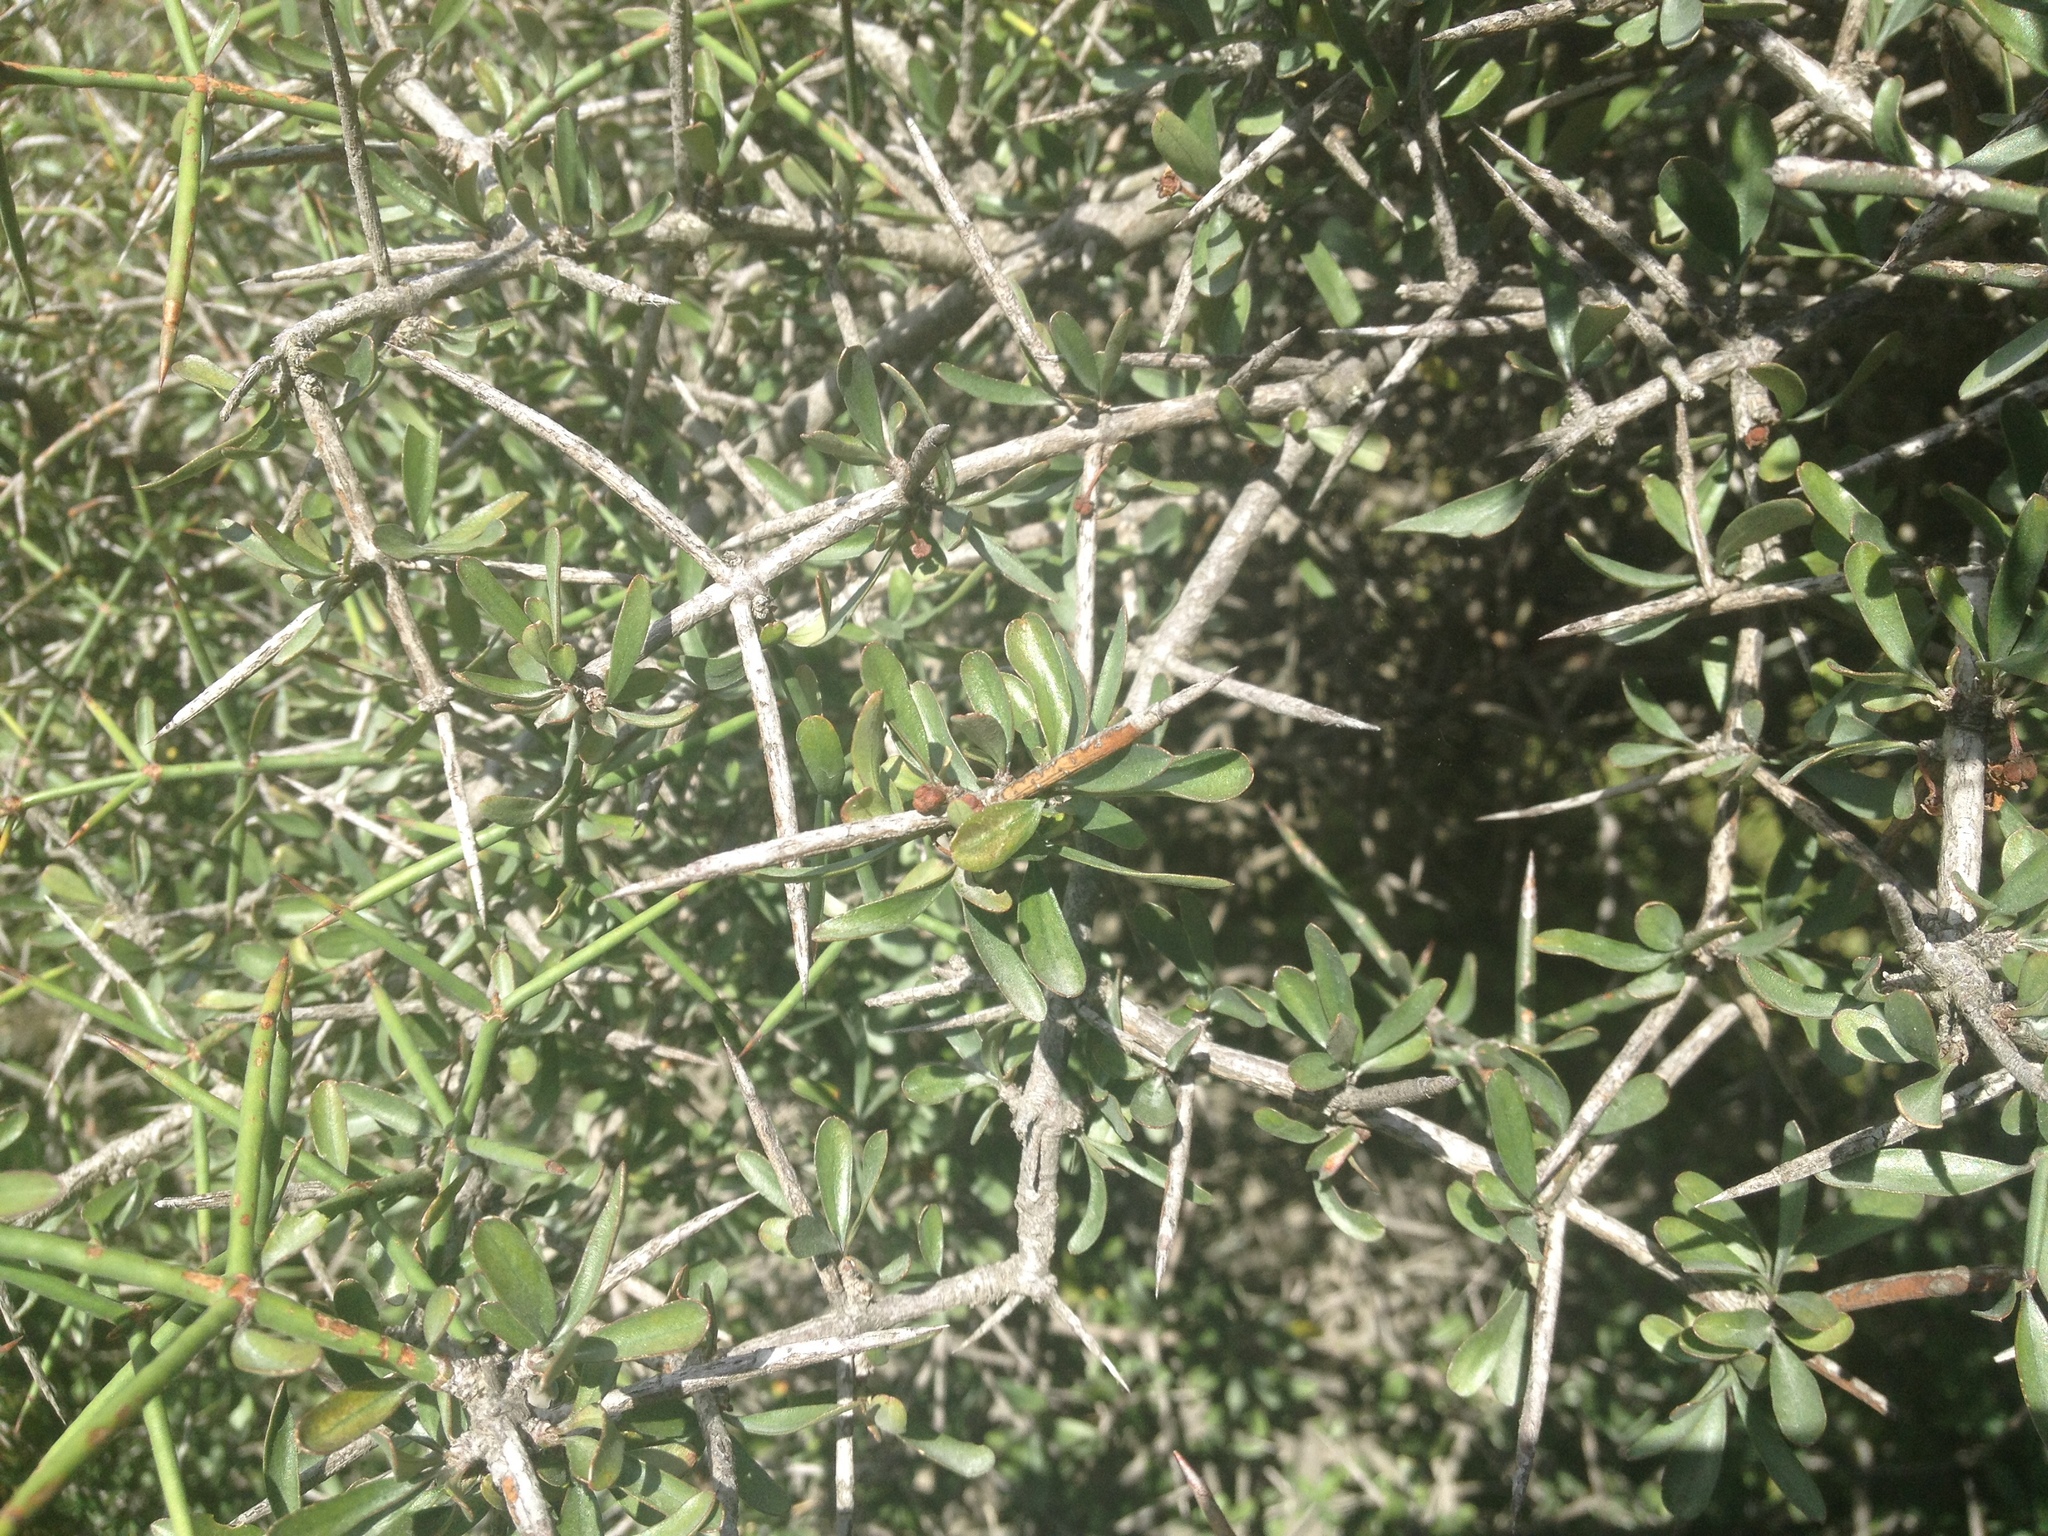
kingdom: Plantae
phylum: Tracheophyta
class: Magnoliopsida
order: Rosales
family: Rhamnaceae
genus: Discaria
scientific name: Discaria toumatou
